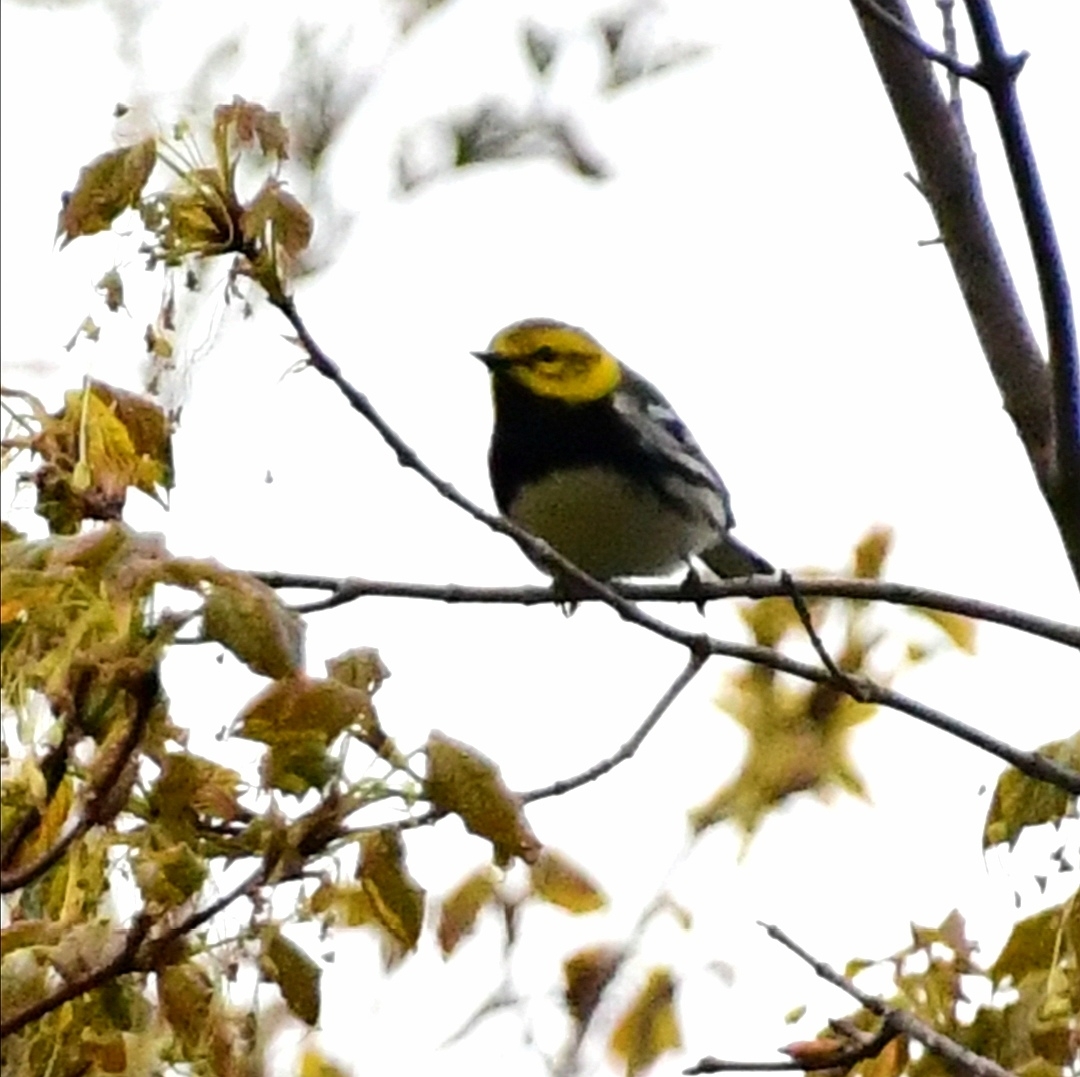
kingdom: Animalia
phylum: Chordata
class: Aves
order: Passeriformes
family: Parulidae
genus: Setophaga
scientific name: Setophaga virens
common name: Black-throated green warbler
